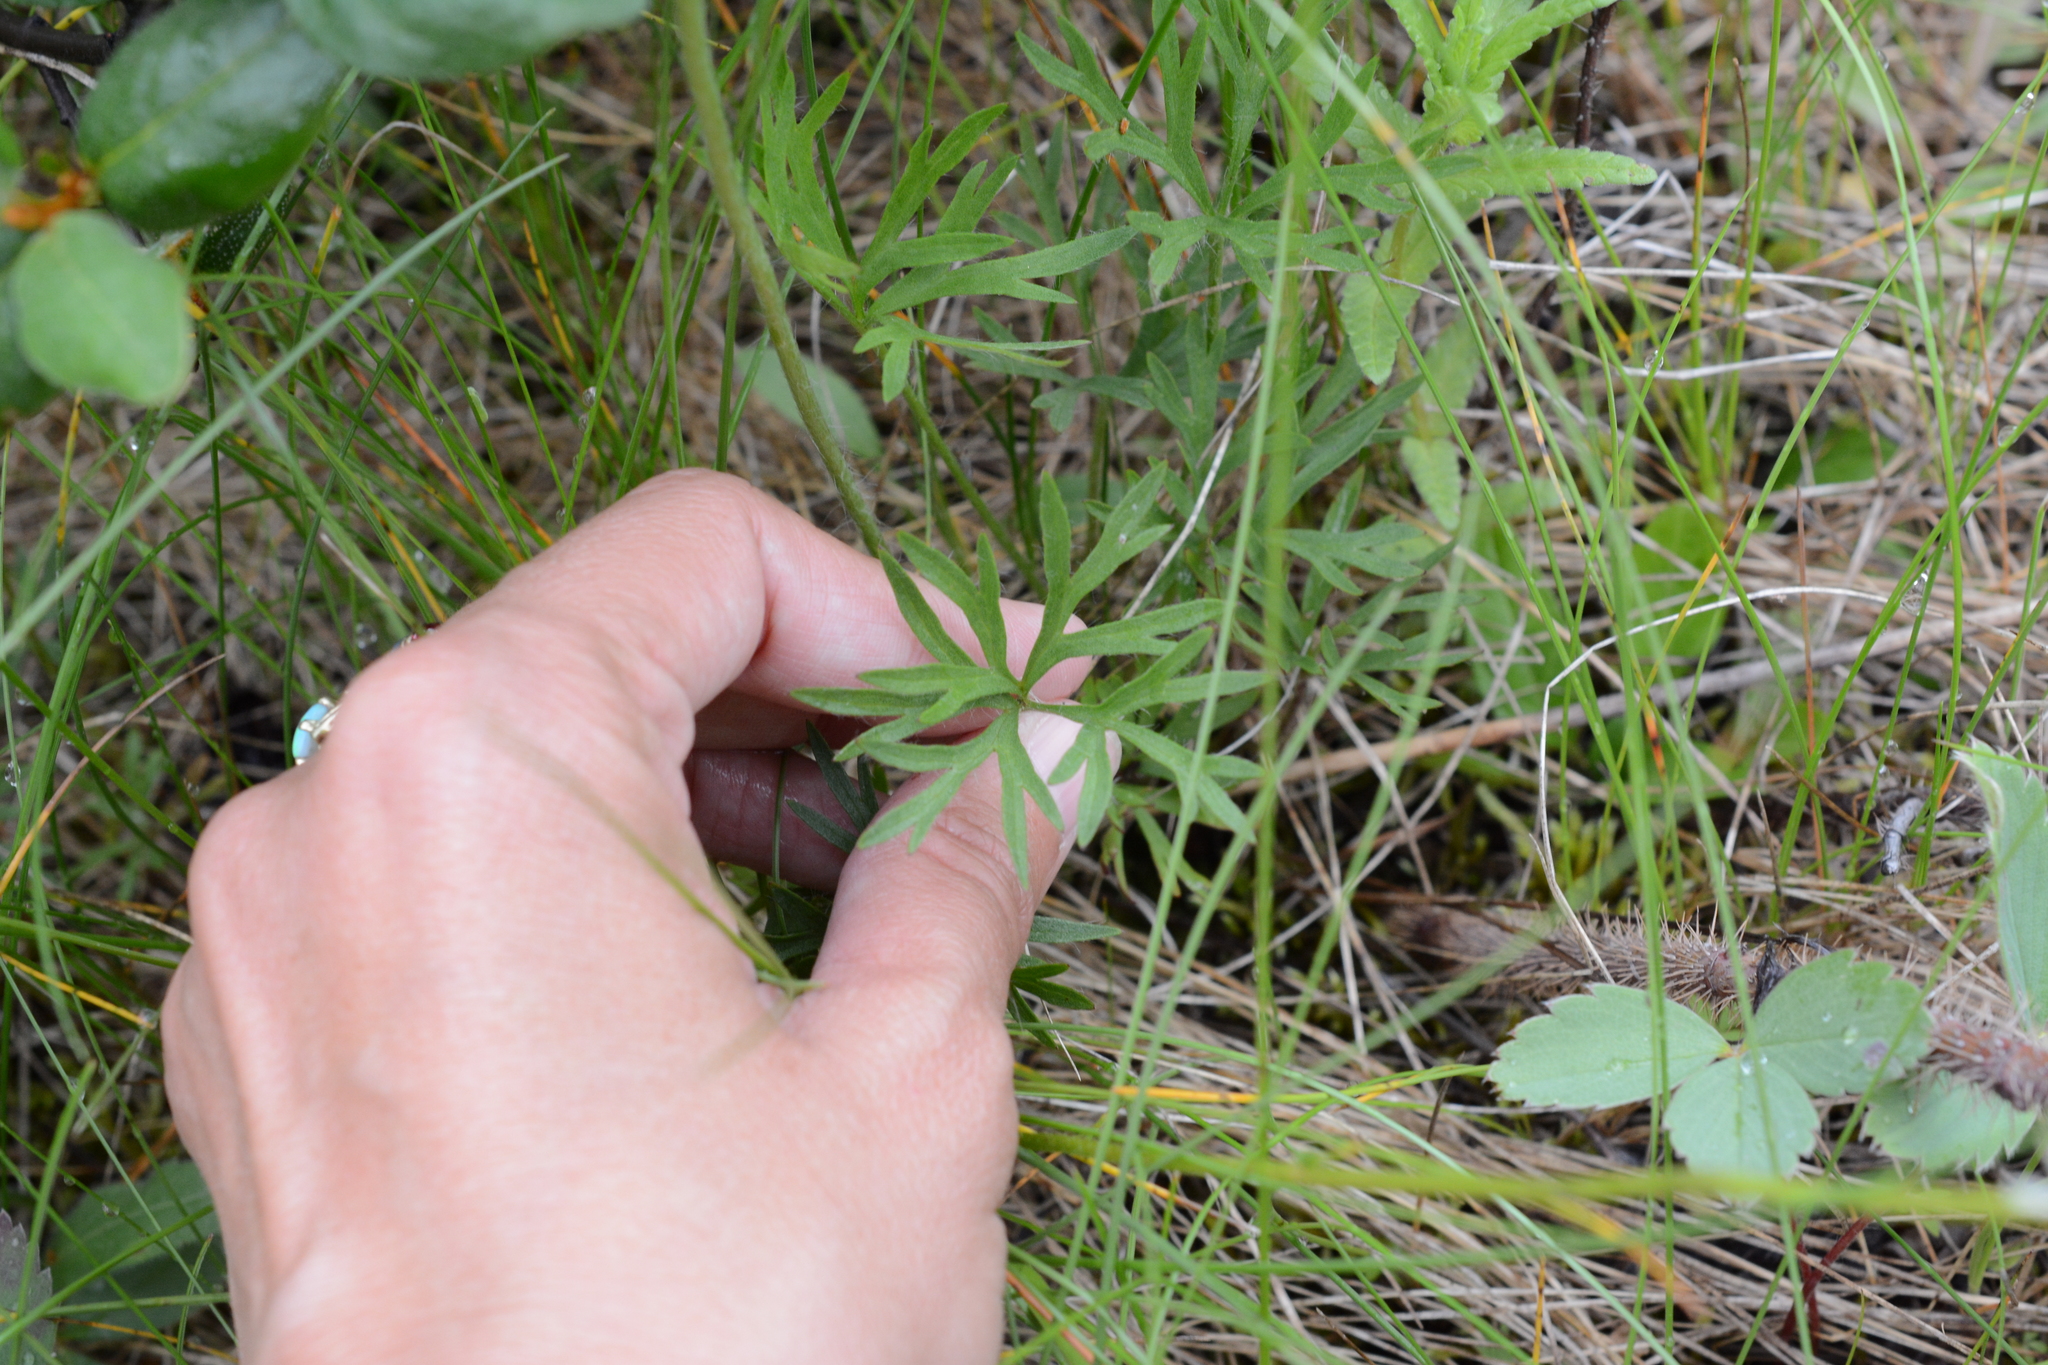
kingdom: Plantae
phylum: Tracheophyta
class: Magnoliopsida
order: Ranunculales
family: Ranunculaceae
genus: Anemone
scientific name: Anemone multifida
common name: Bird's-foot anemone
